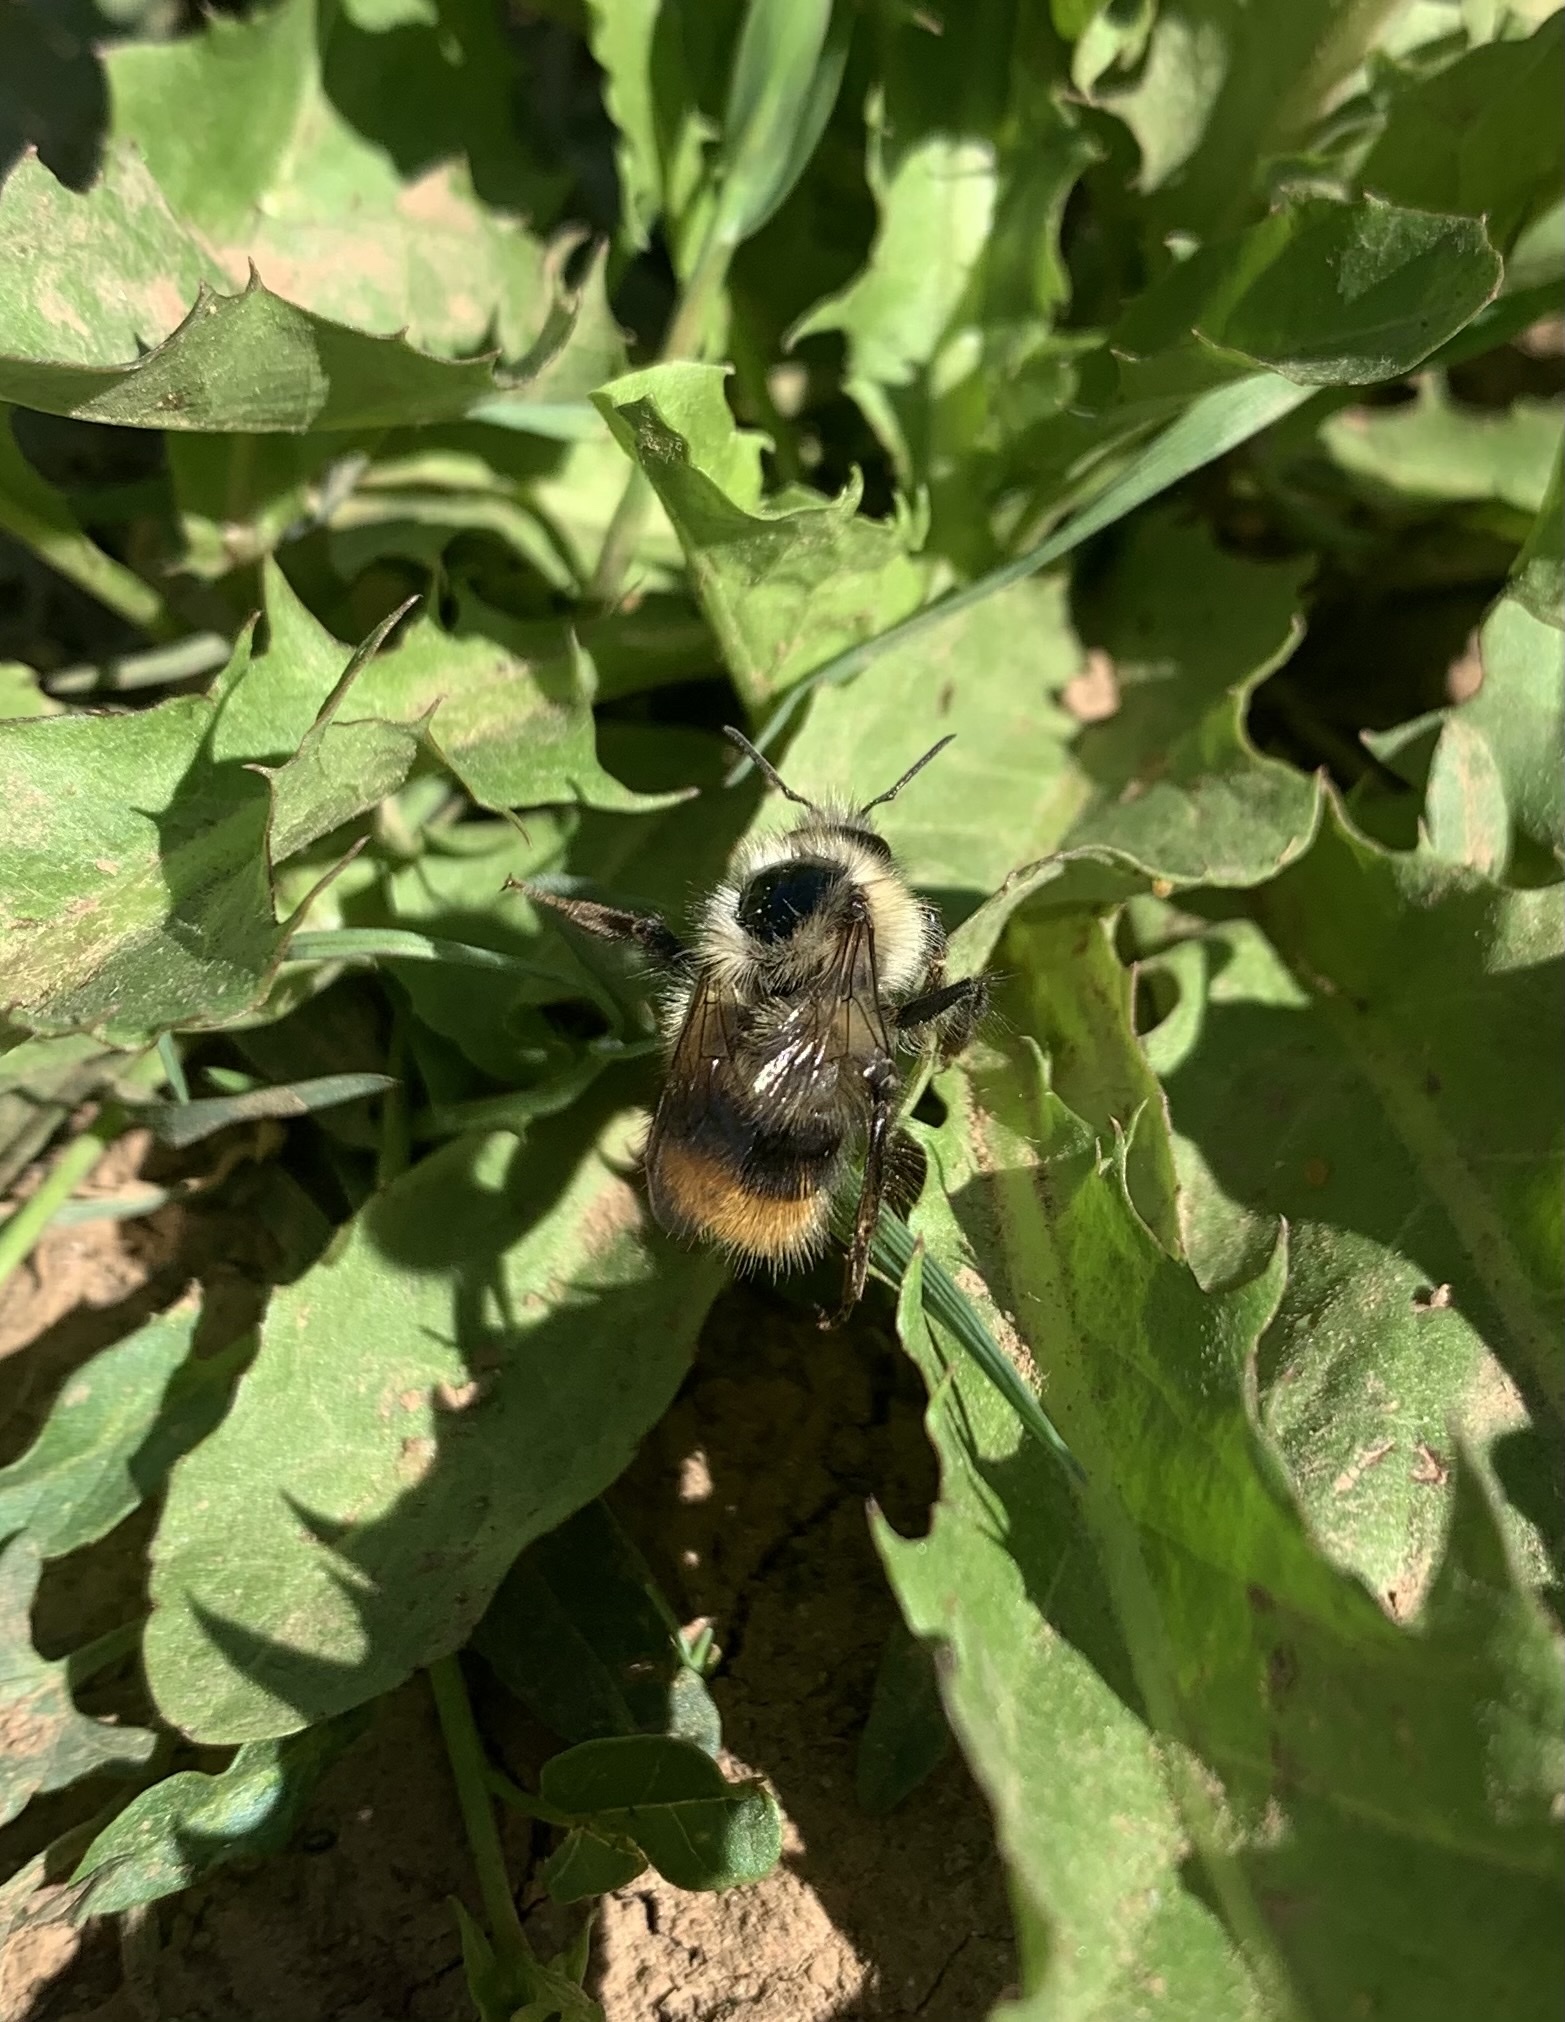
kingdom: Animalia
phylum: Arthropoda
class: Insecta
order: Hymenoptera
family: Apidae
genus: Bombus
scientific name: Bombus mixtus
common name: Fuzzy-horned bumble bee
